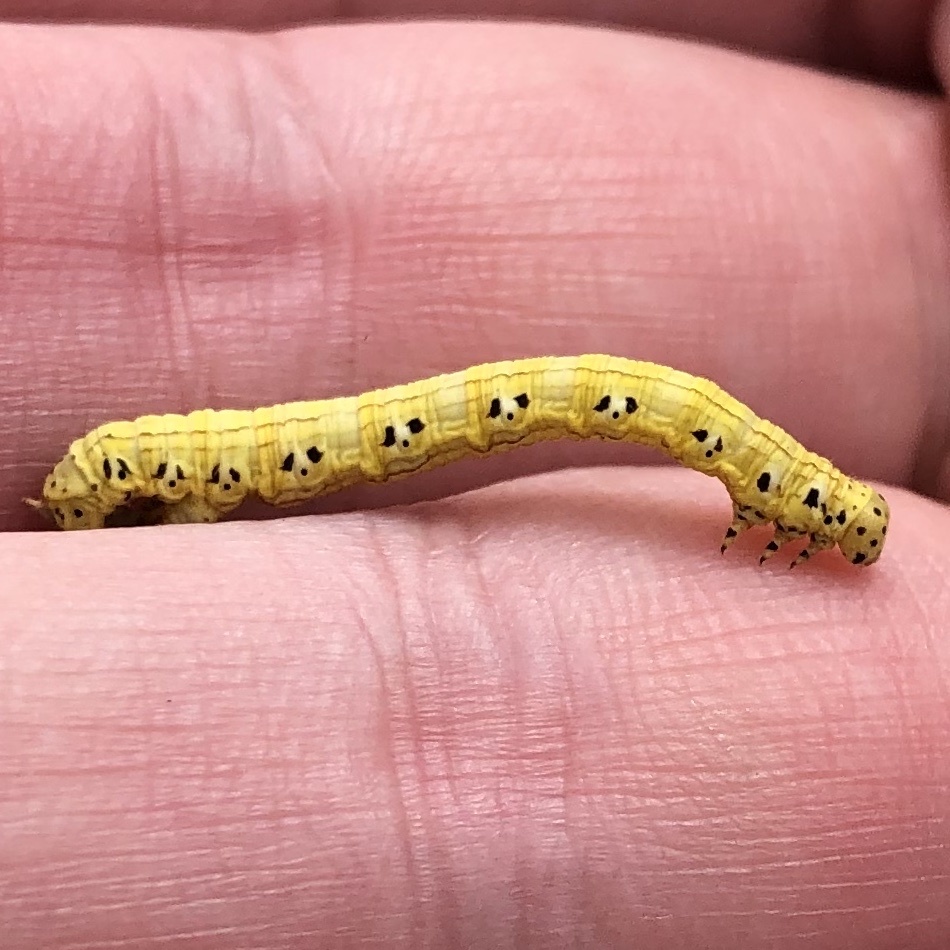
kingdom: Animalia
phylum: Arthropoda
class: Insecta
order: Lepidoptera
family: Geometridae
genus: Cingilia
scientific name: Cingilia catenaria
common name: Chain-dotted geometer
